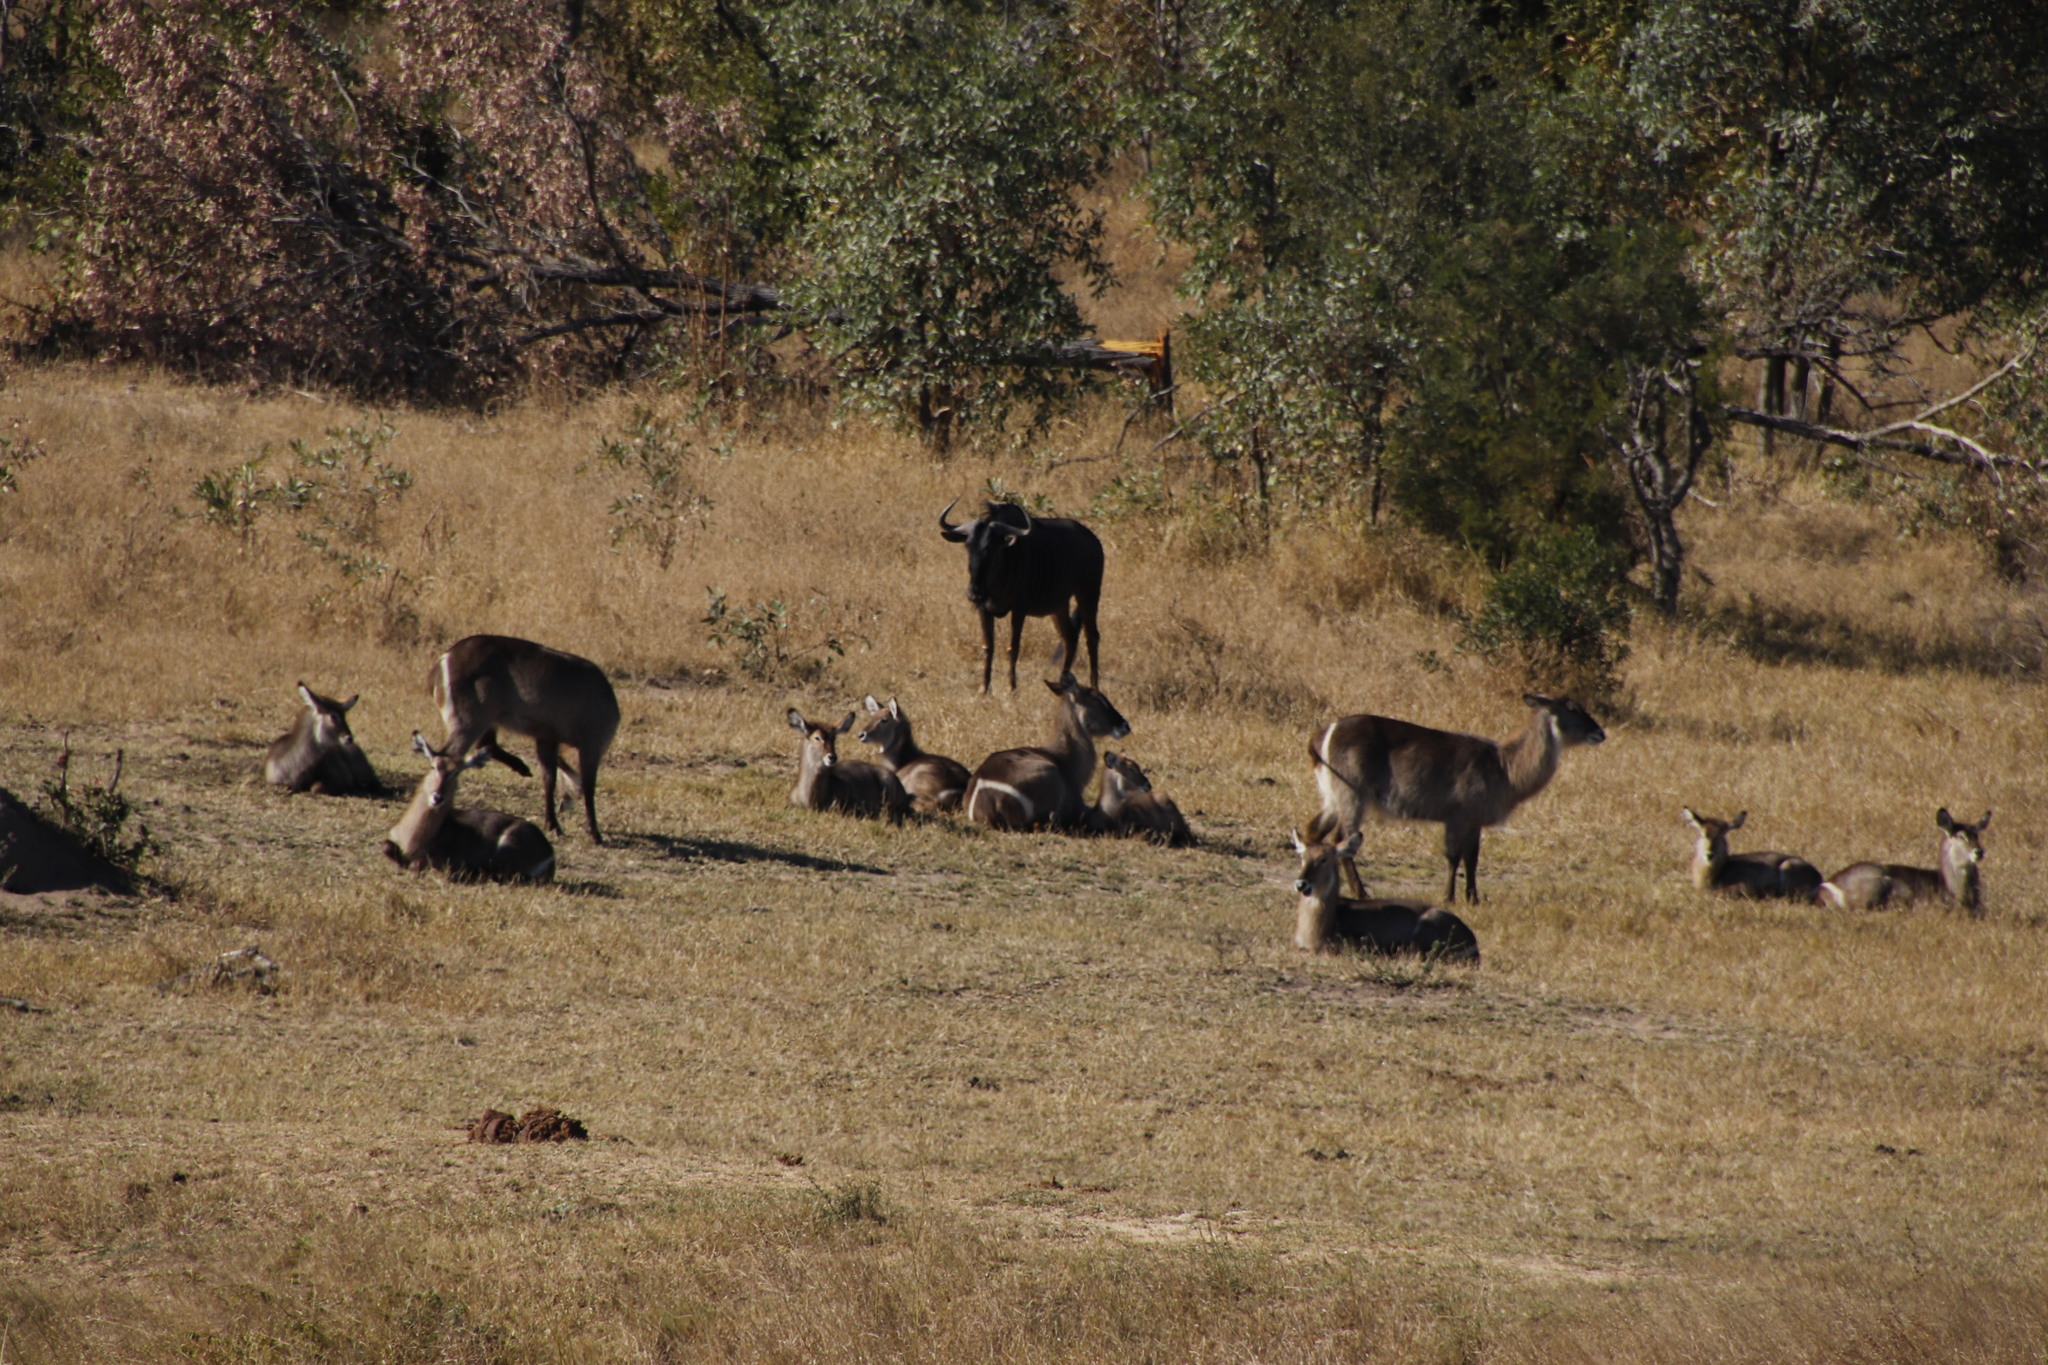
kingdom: Animalia
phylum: Chordata
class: Mammalia
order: Artiodactyla
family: Bovidae
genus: Connochaetes
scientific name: Connochaetes taurinus
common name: Blue wildebeest
